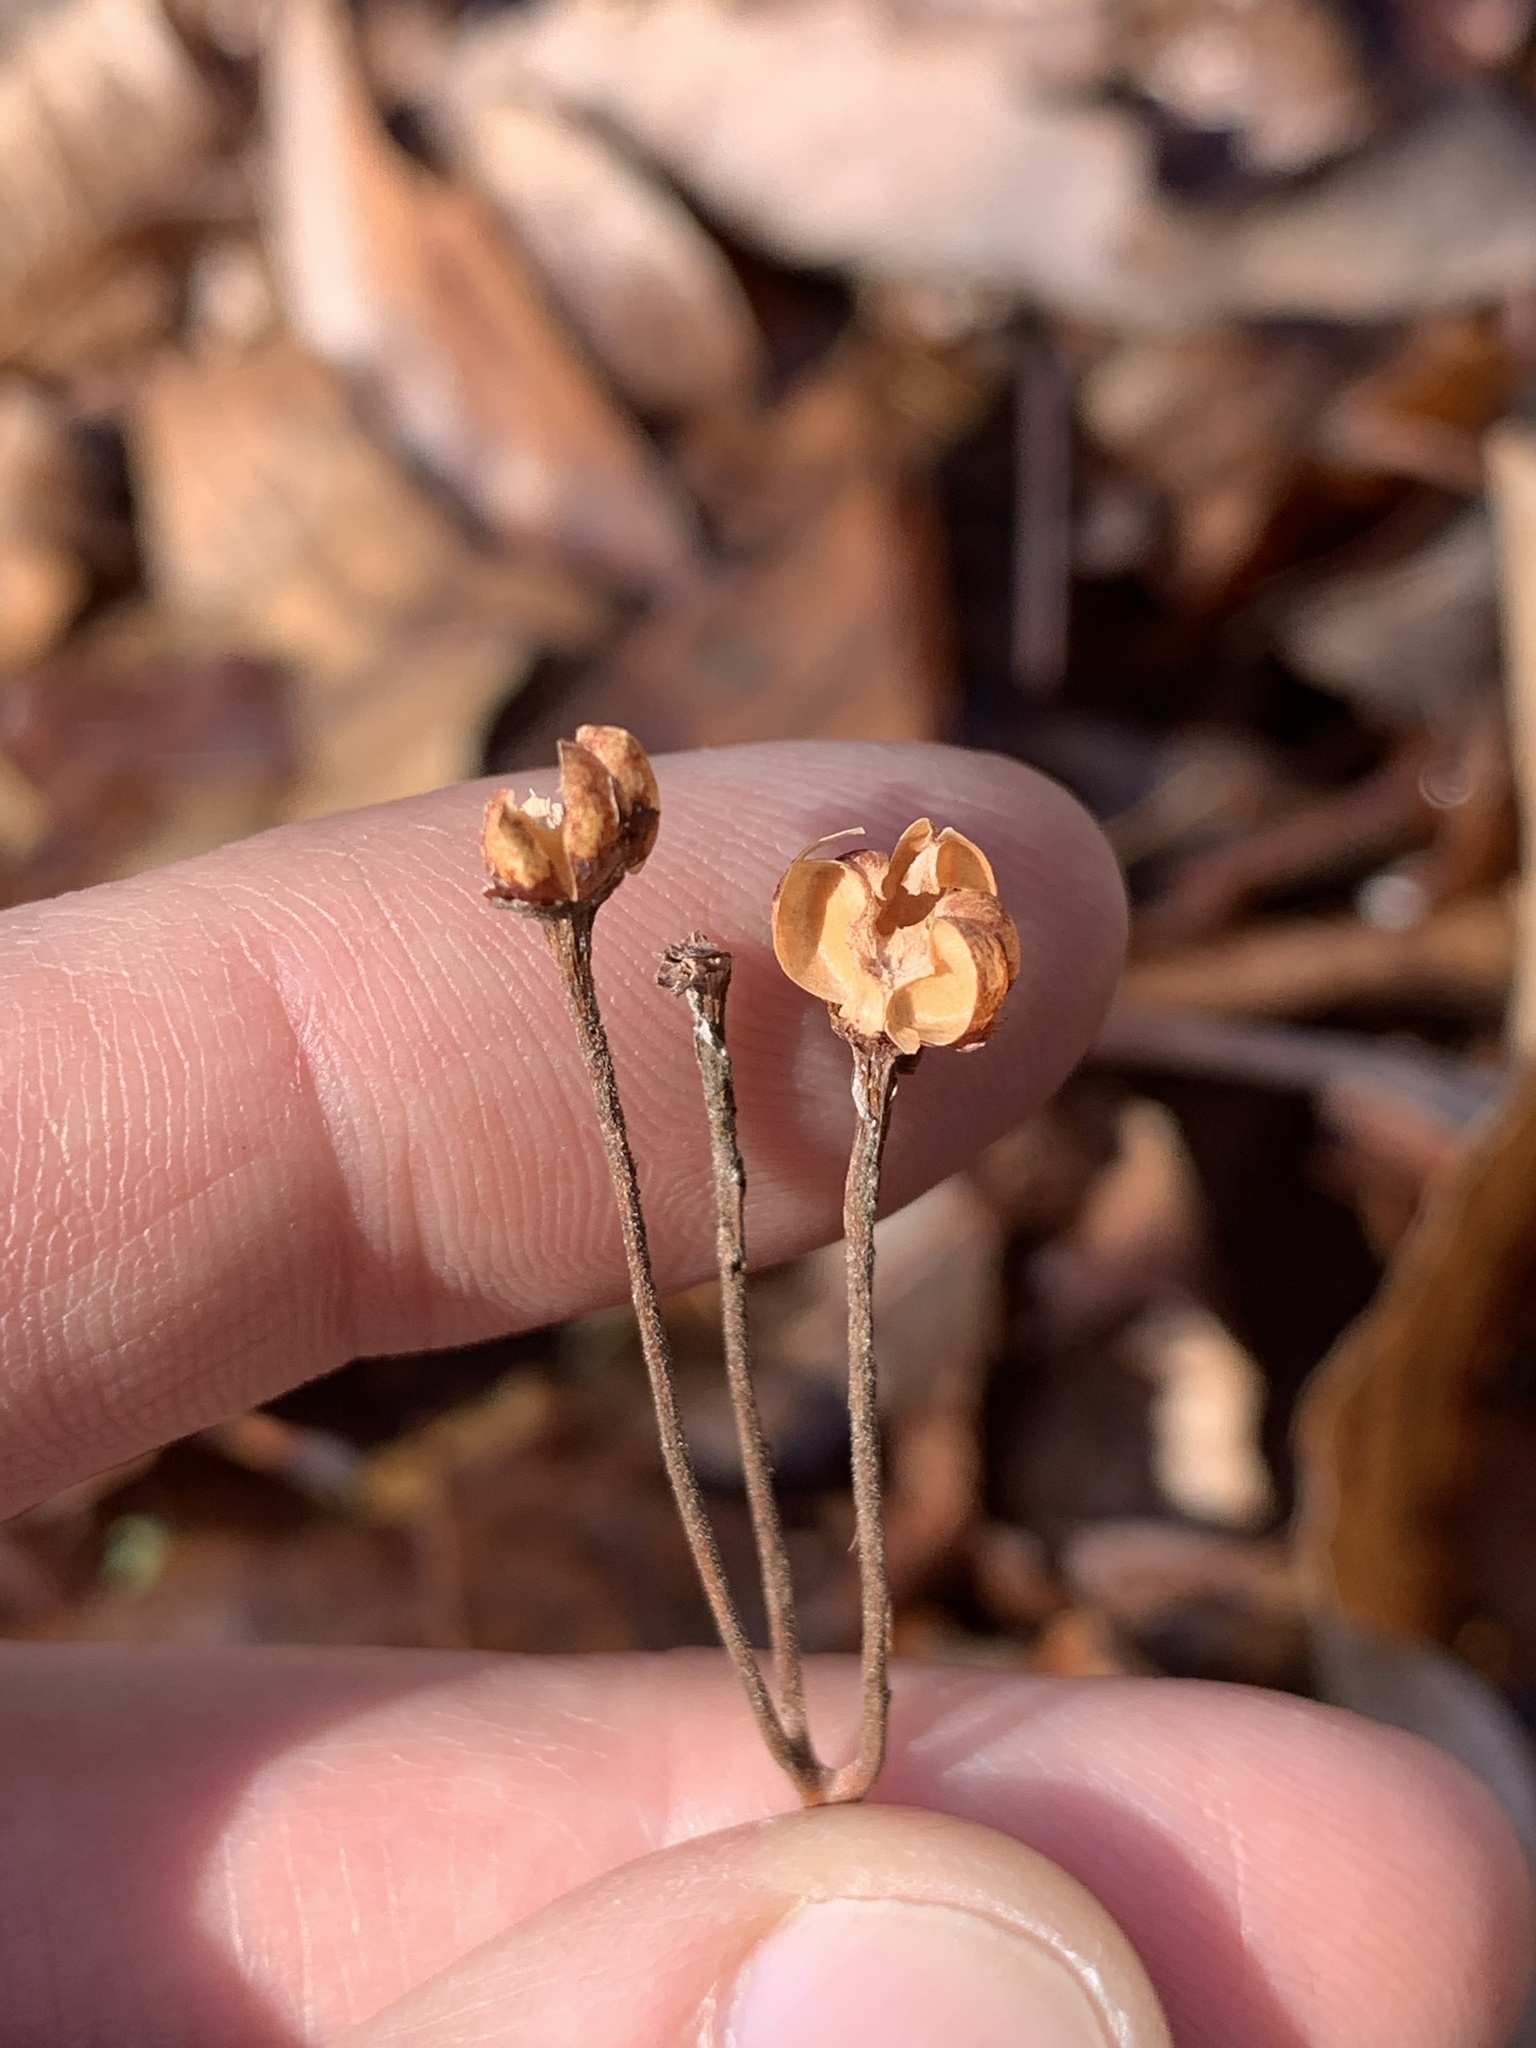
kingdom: Plantae
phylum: Tracheophyta
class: Magnoliopsida
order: Ericales
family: Ericaceae
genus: Chimaphila
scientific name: Chimaphila maculata
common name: Spotted pipsissewa
